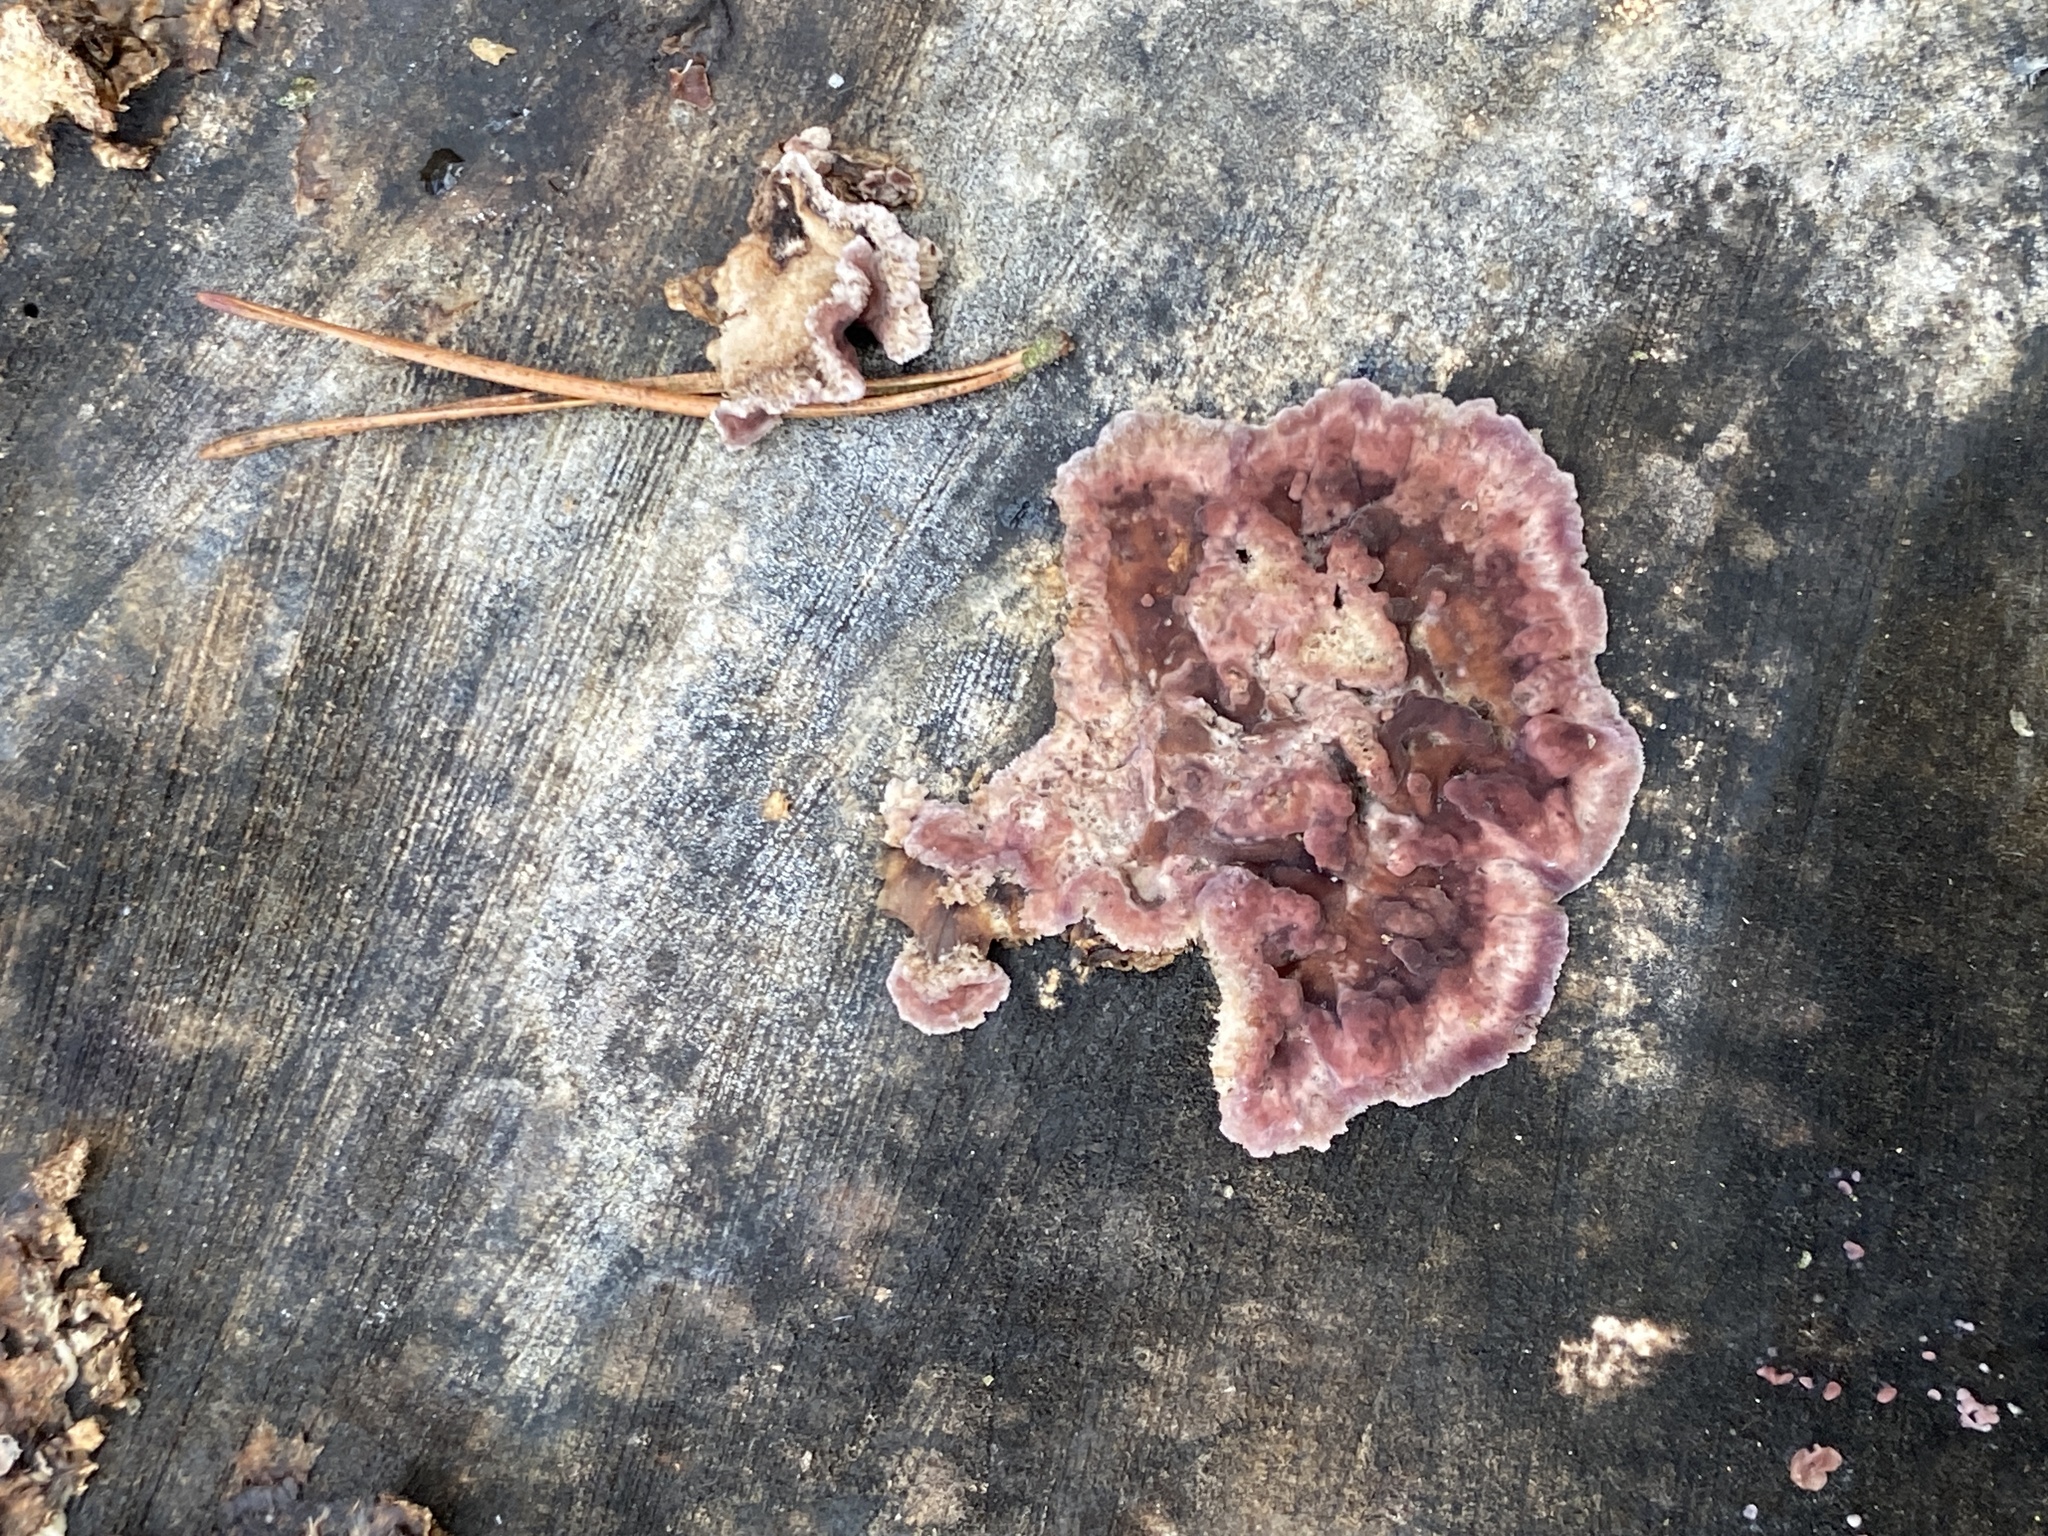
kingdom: Fungi
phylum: Basidiomycota
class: Agaricomycetes
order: Agaricales
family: Cyphellaceae
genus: Chondrostereum
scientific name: Chondrostereum purpureum
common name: Silver leaf disease
